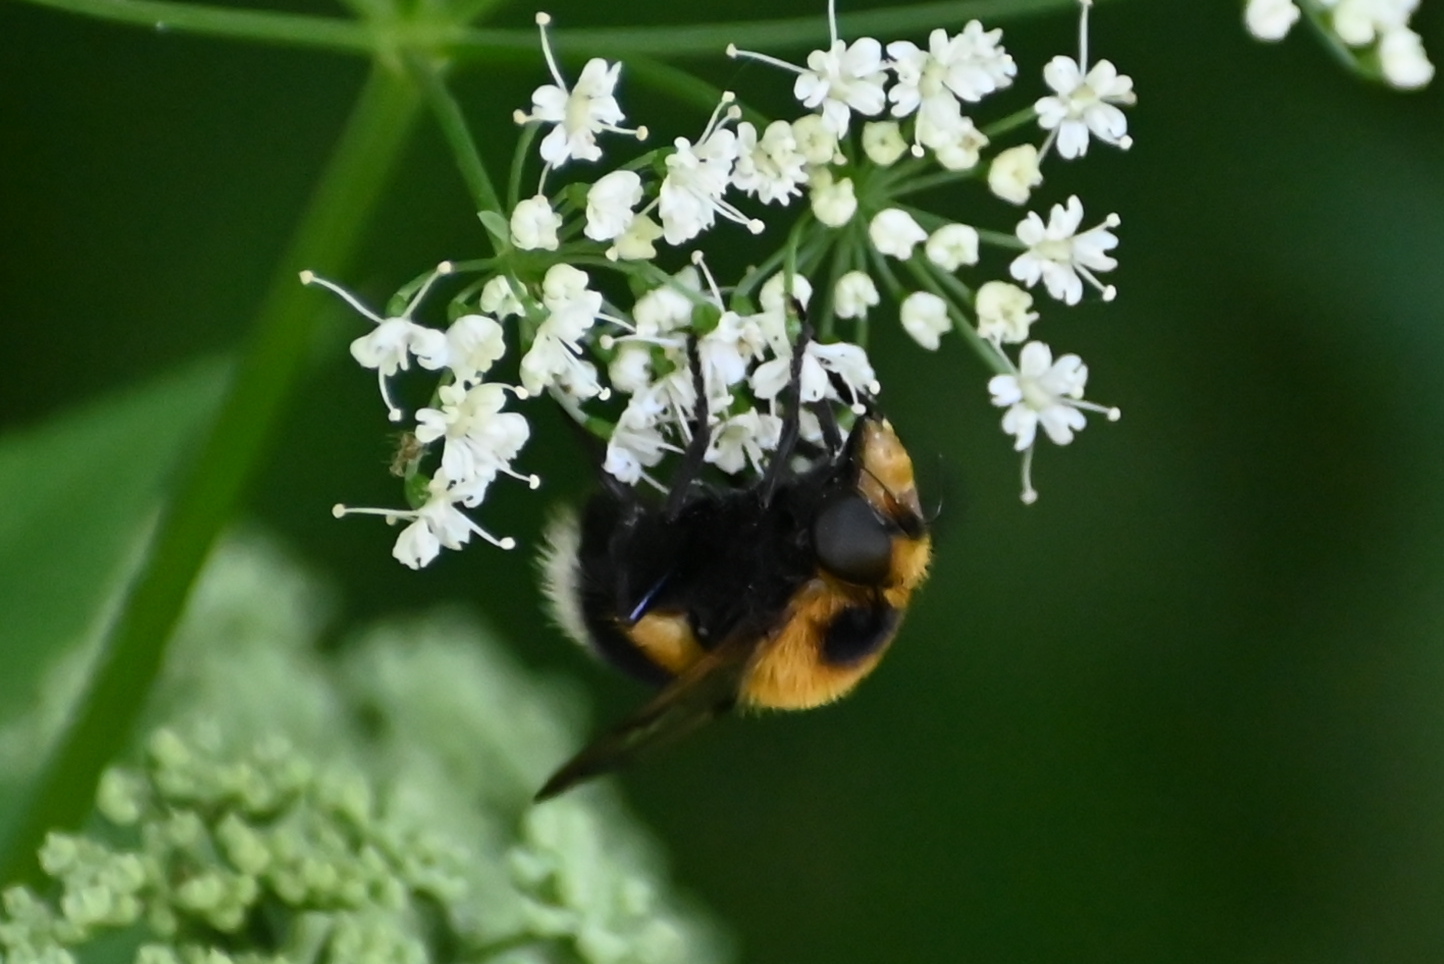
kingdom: Animalia
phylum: Arthropoda
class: Insecta
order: Diptera
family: Syrphidae
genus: Volucella
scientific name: Volucella bombylans
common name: Bumble bee hover fly
